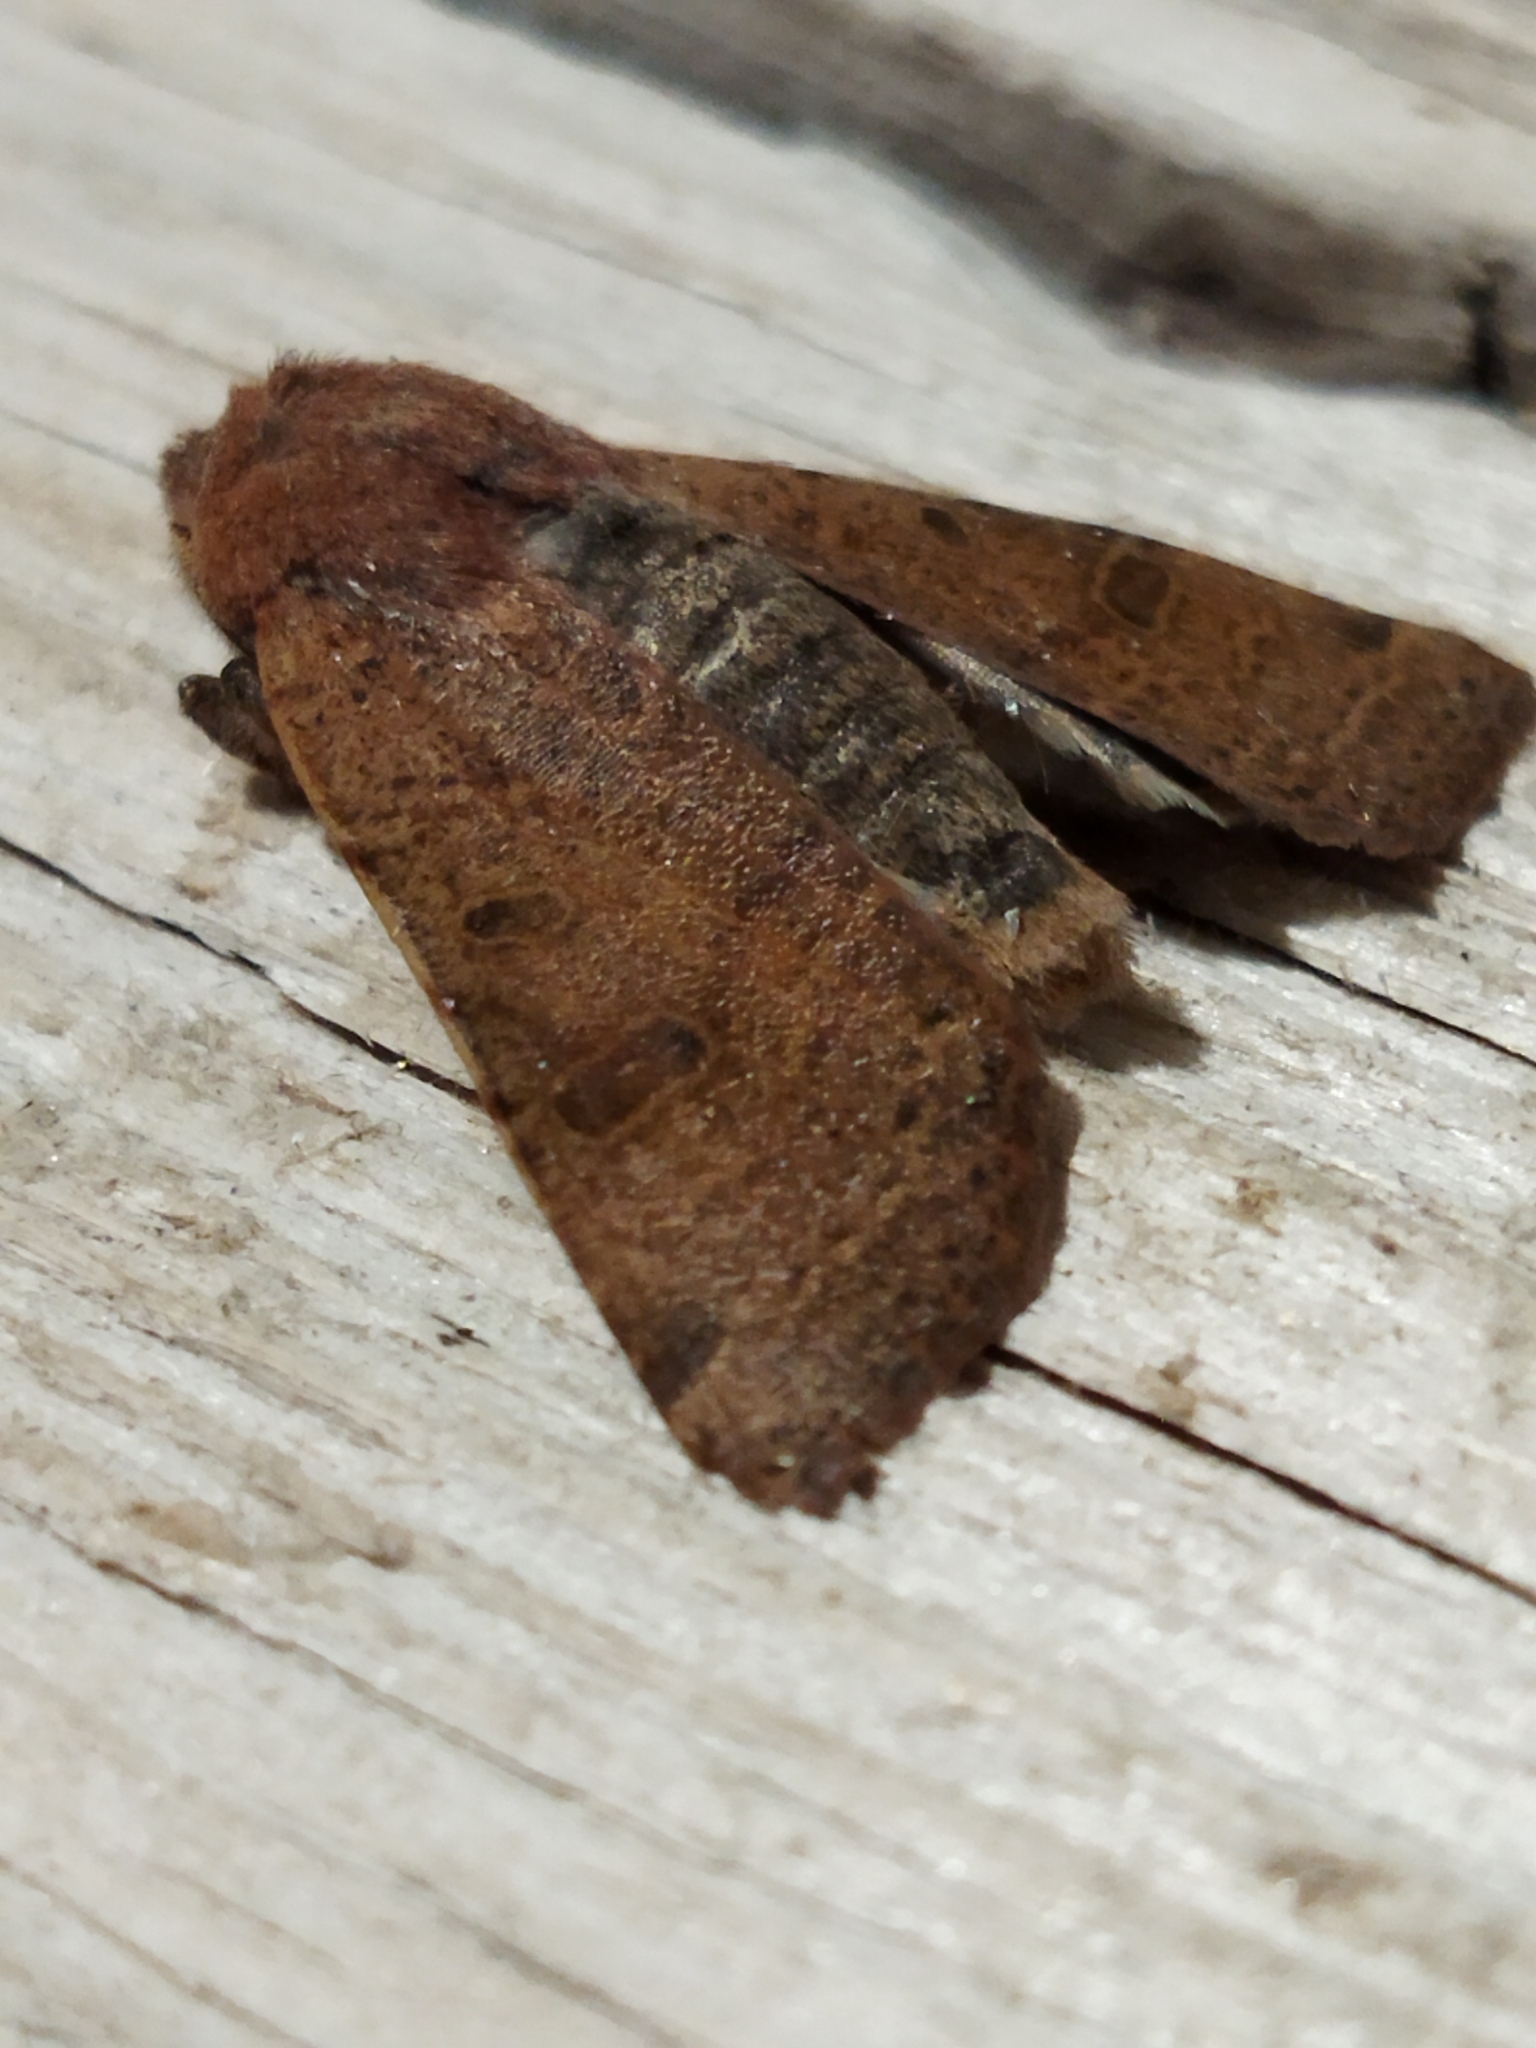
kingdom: Animalia
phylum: Arthropoda
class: Insecta
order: Lepidoptera
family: Noctuidae
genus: Agrochola
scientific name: Agrochola lychnidis
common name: Beaded chestnut
